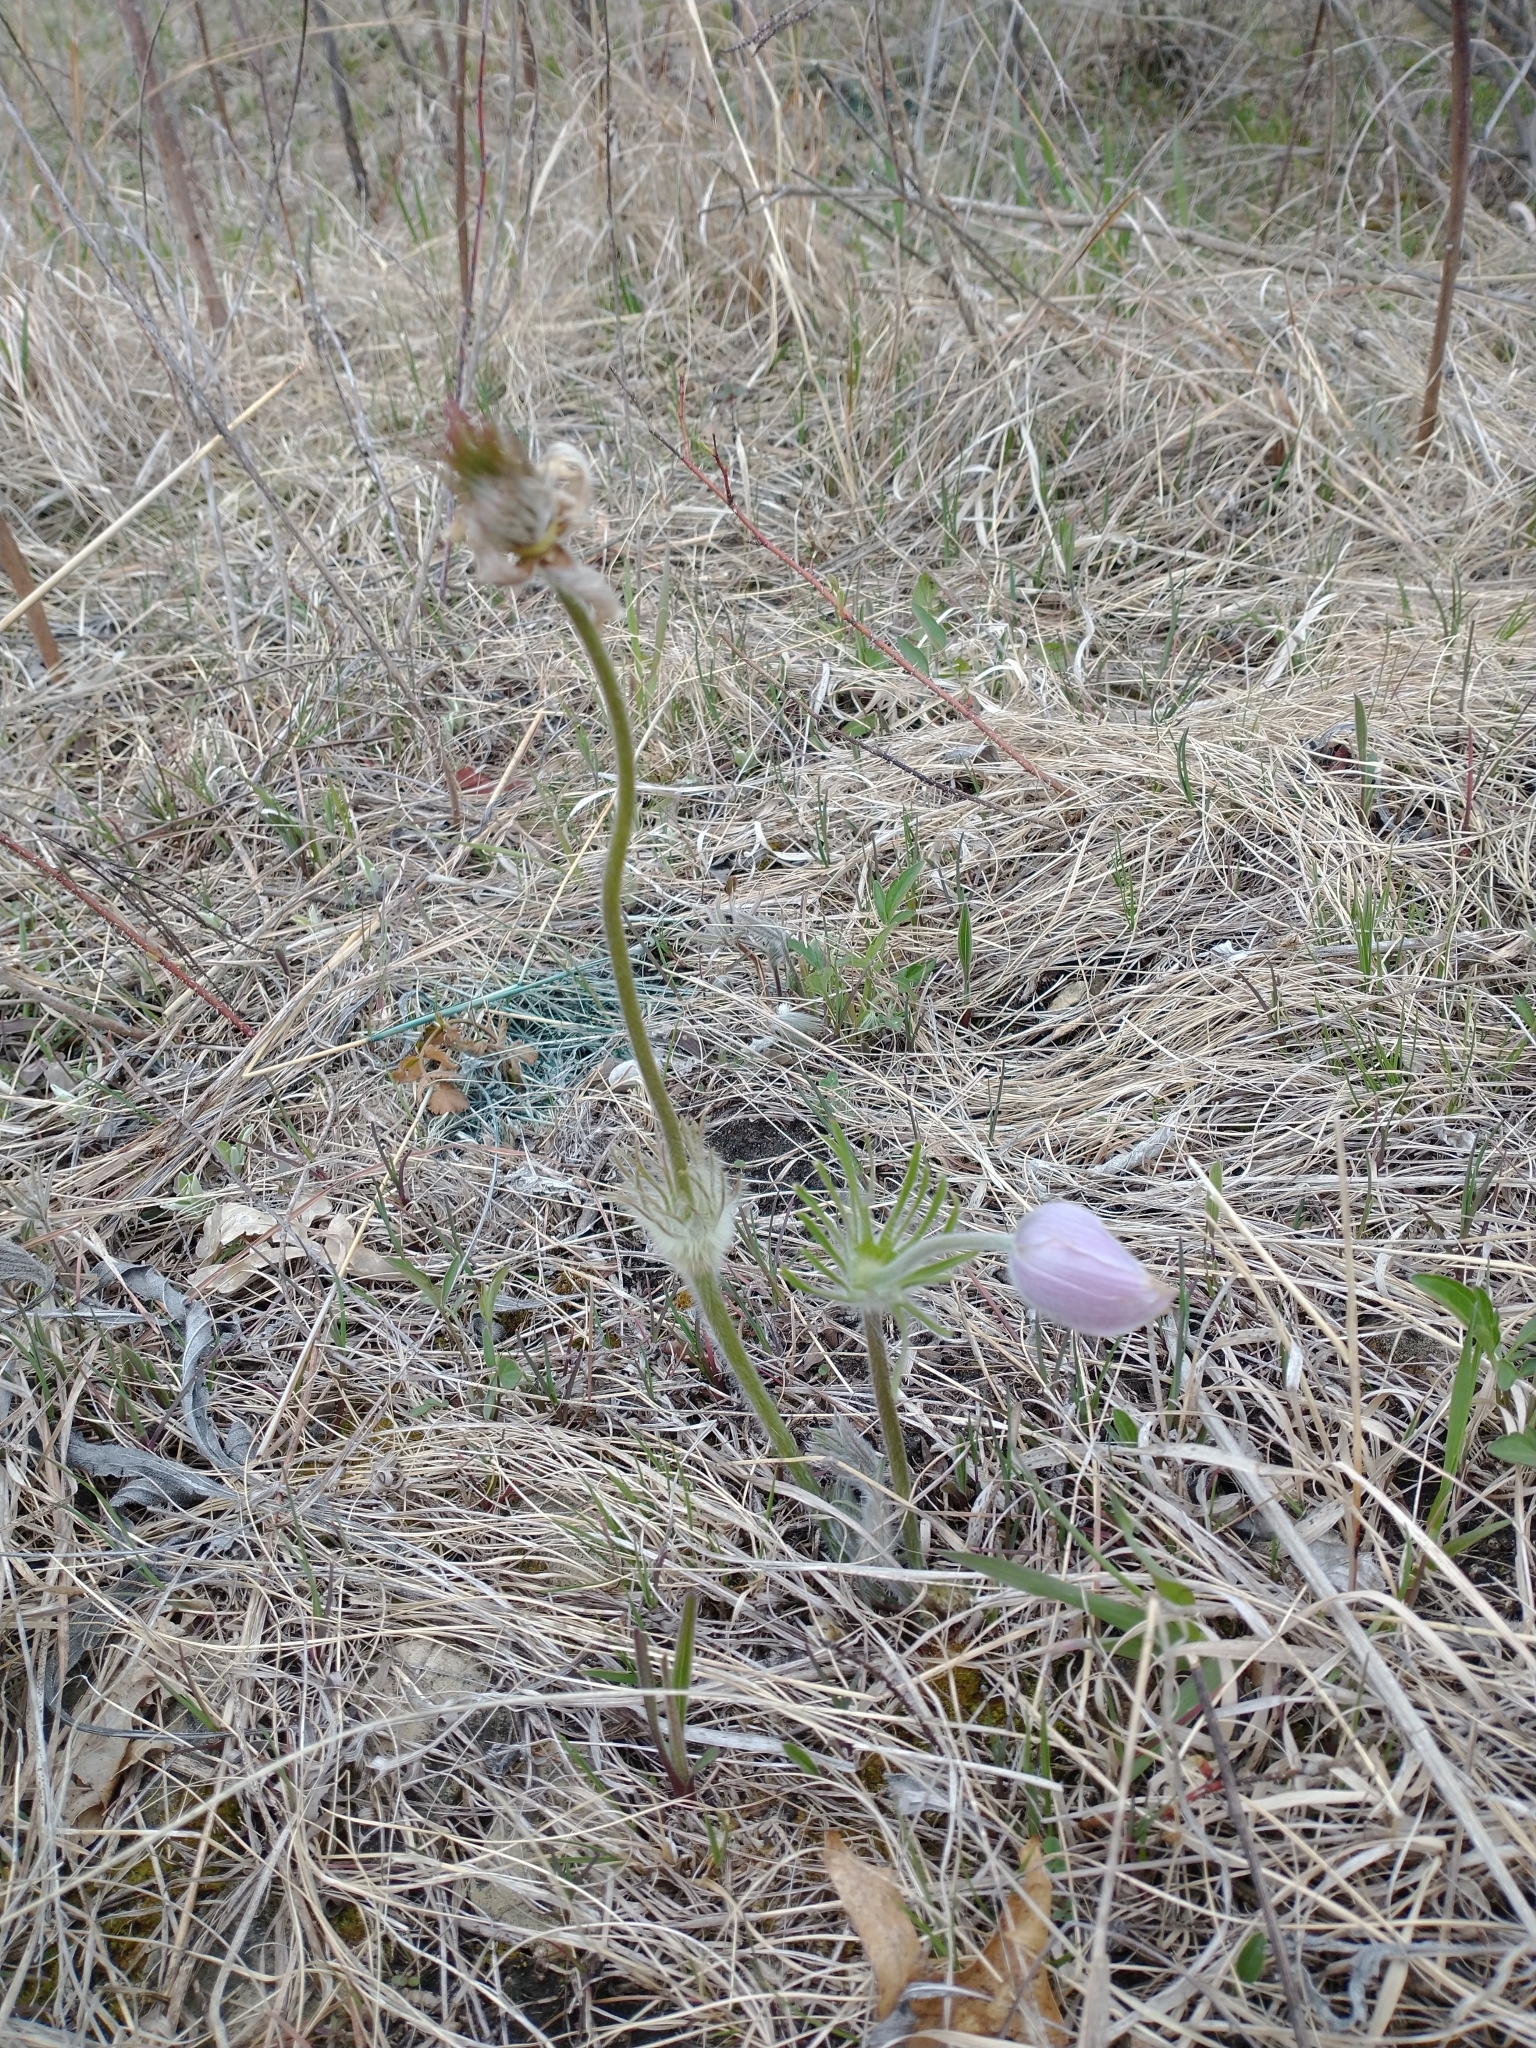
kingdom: Plantae
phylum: Tracheophyta
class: Magnoliopsida
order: Ranunculales
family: Ranunculaceae
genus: Pulsatilla
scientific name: Pulsatilla nuttalliana
